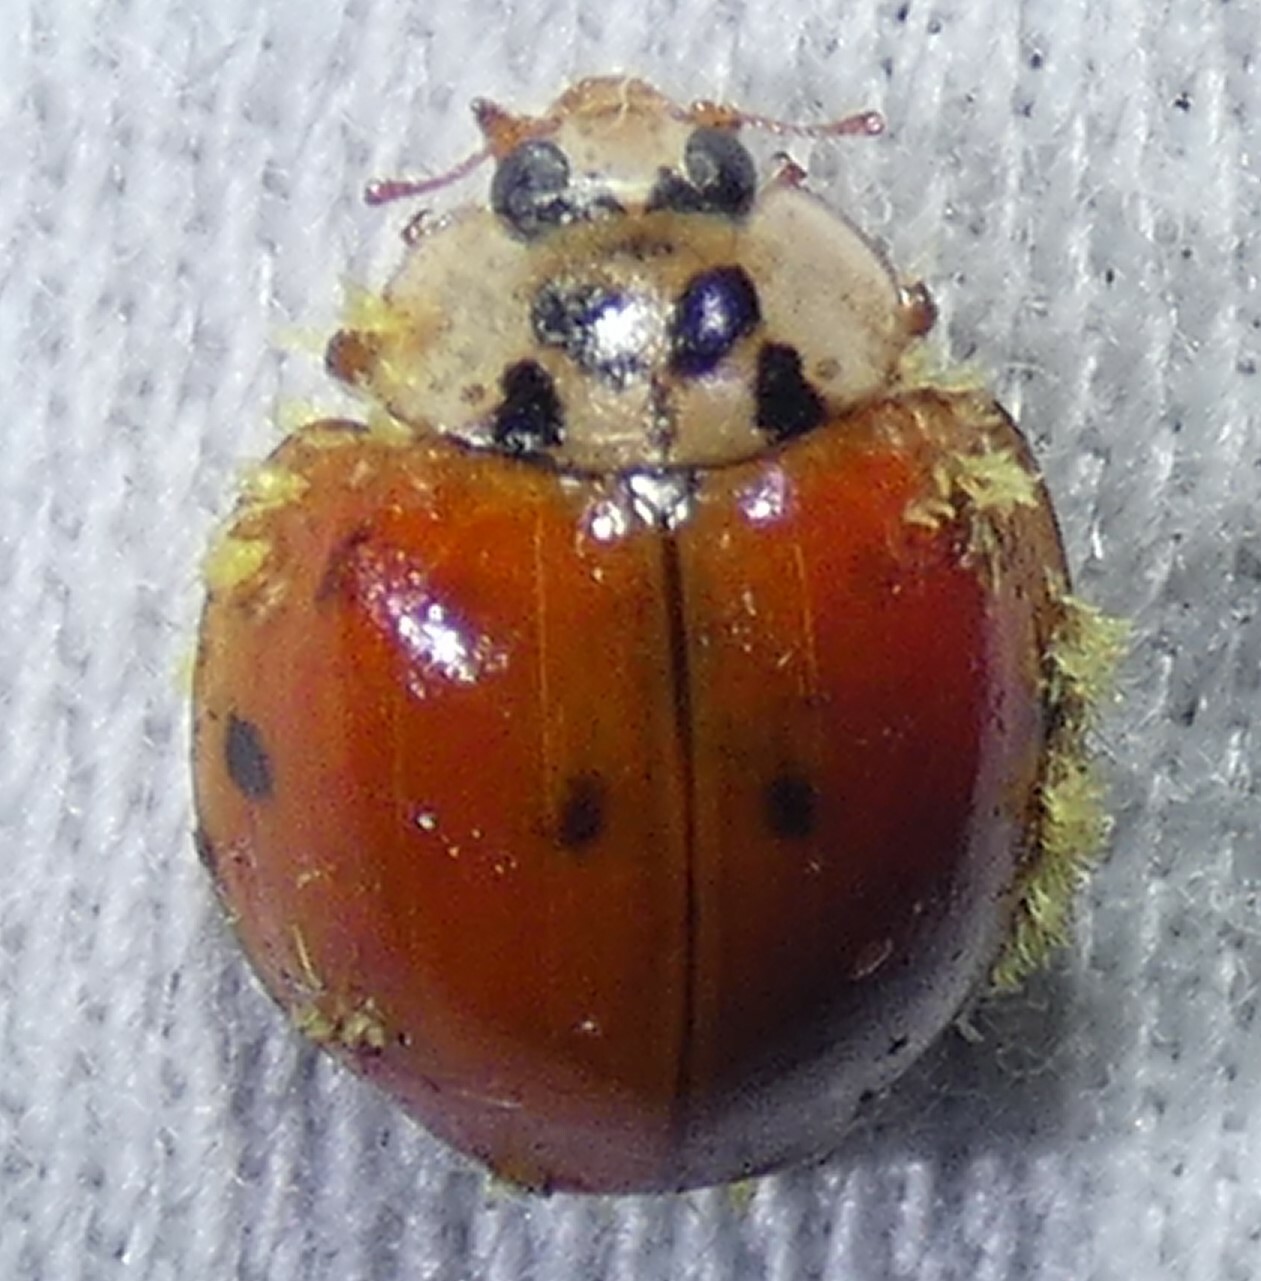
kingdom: Fungi
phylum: Ascomycota
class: Laboulbeniomycetes
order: Laboulbeniales
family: Laboulbeniaceae
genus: Hesperomyces
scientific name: Hesperomyces harmoniae
